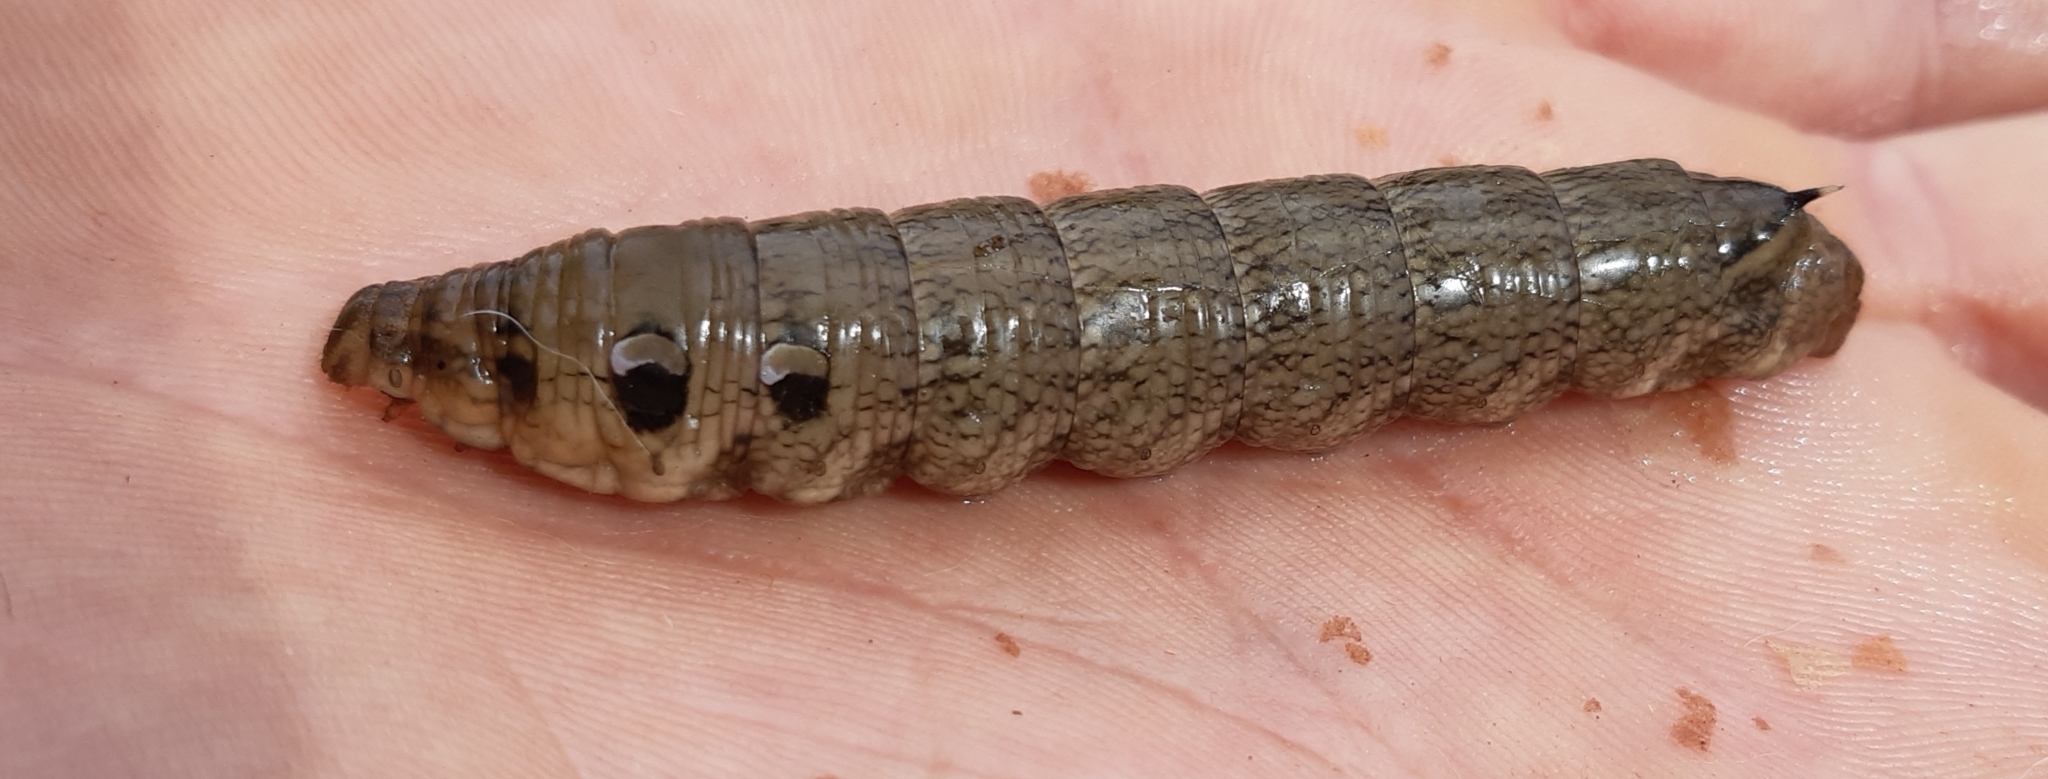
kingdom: Animalia
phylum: Arthropoda
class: Insecta
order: Lepidoptera
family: Sphingidae
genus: Deilephila
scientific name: Deilephila elpenor
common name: Elephant hawk-moth
